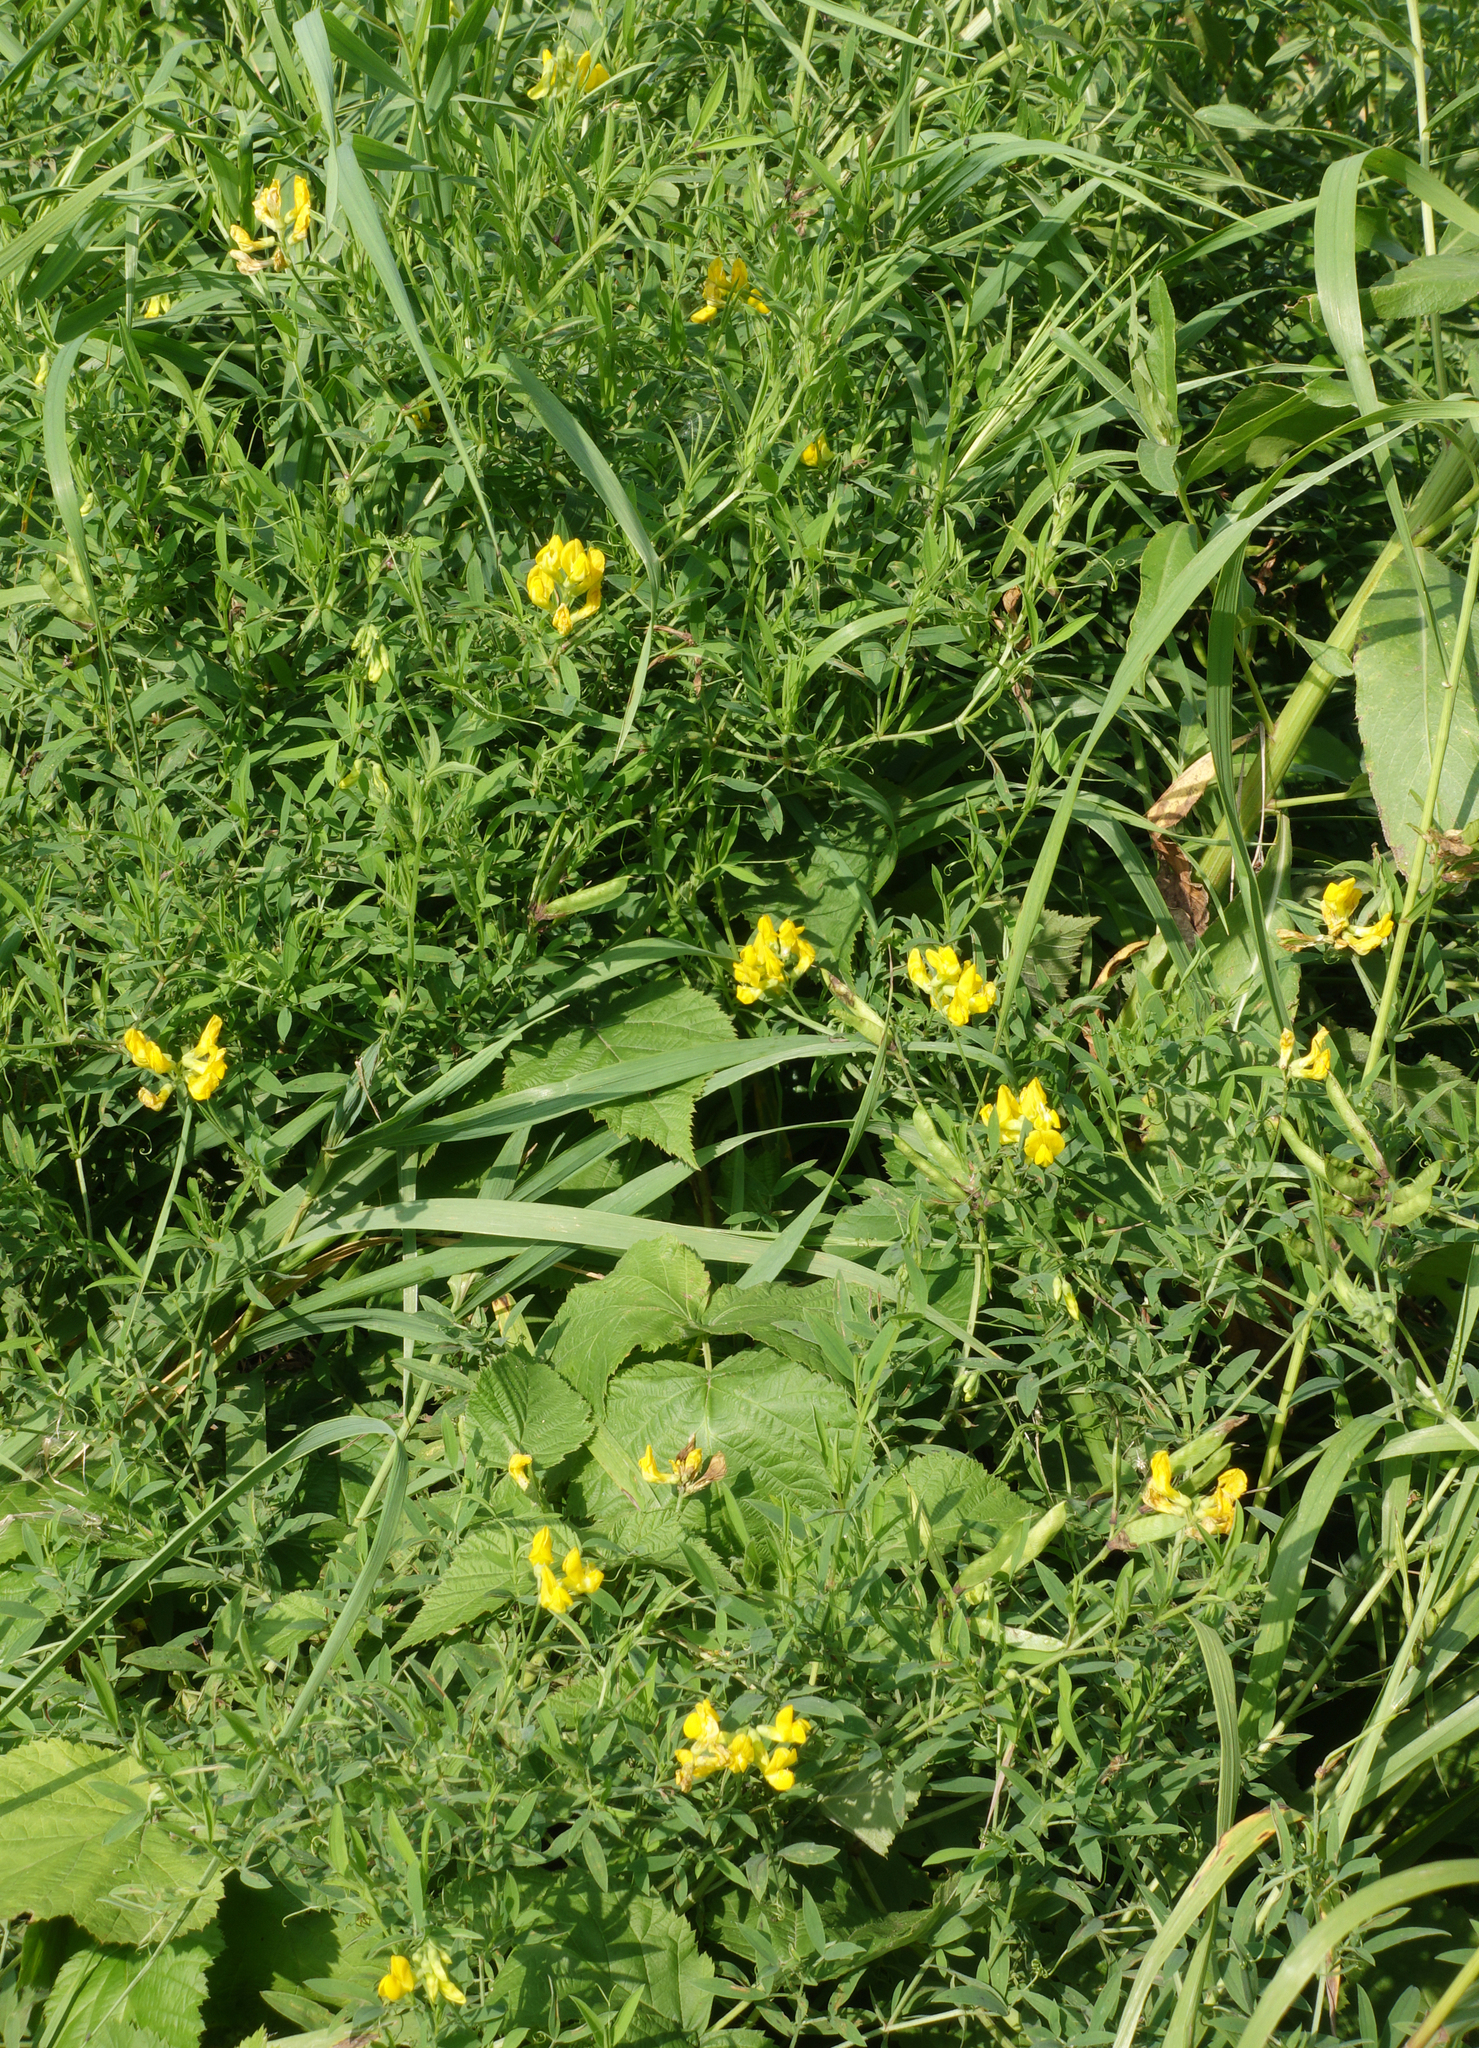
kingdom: Plantae
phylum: Tracheophyta
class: Magnoliopsida
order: Fabales
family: Fabaceae
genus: Lathyrus
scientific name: Lathyrus pratensis
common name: Meadow vetchling
